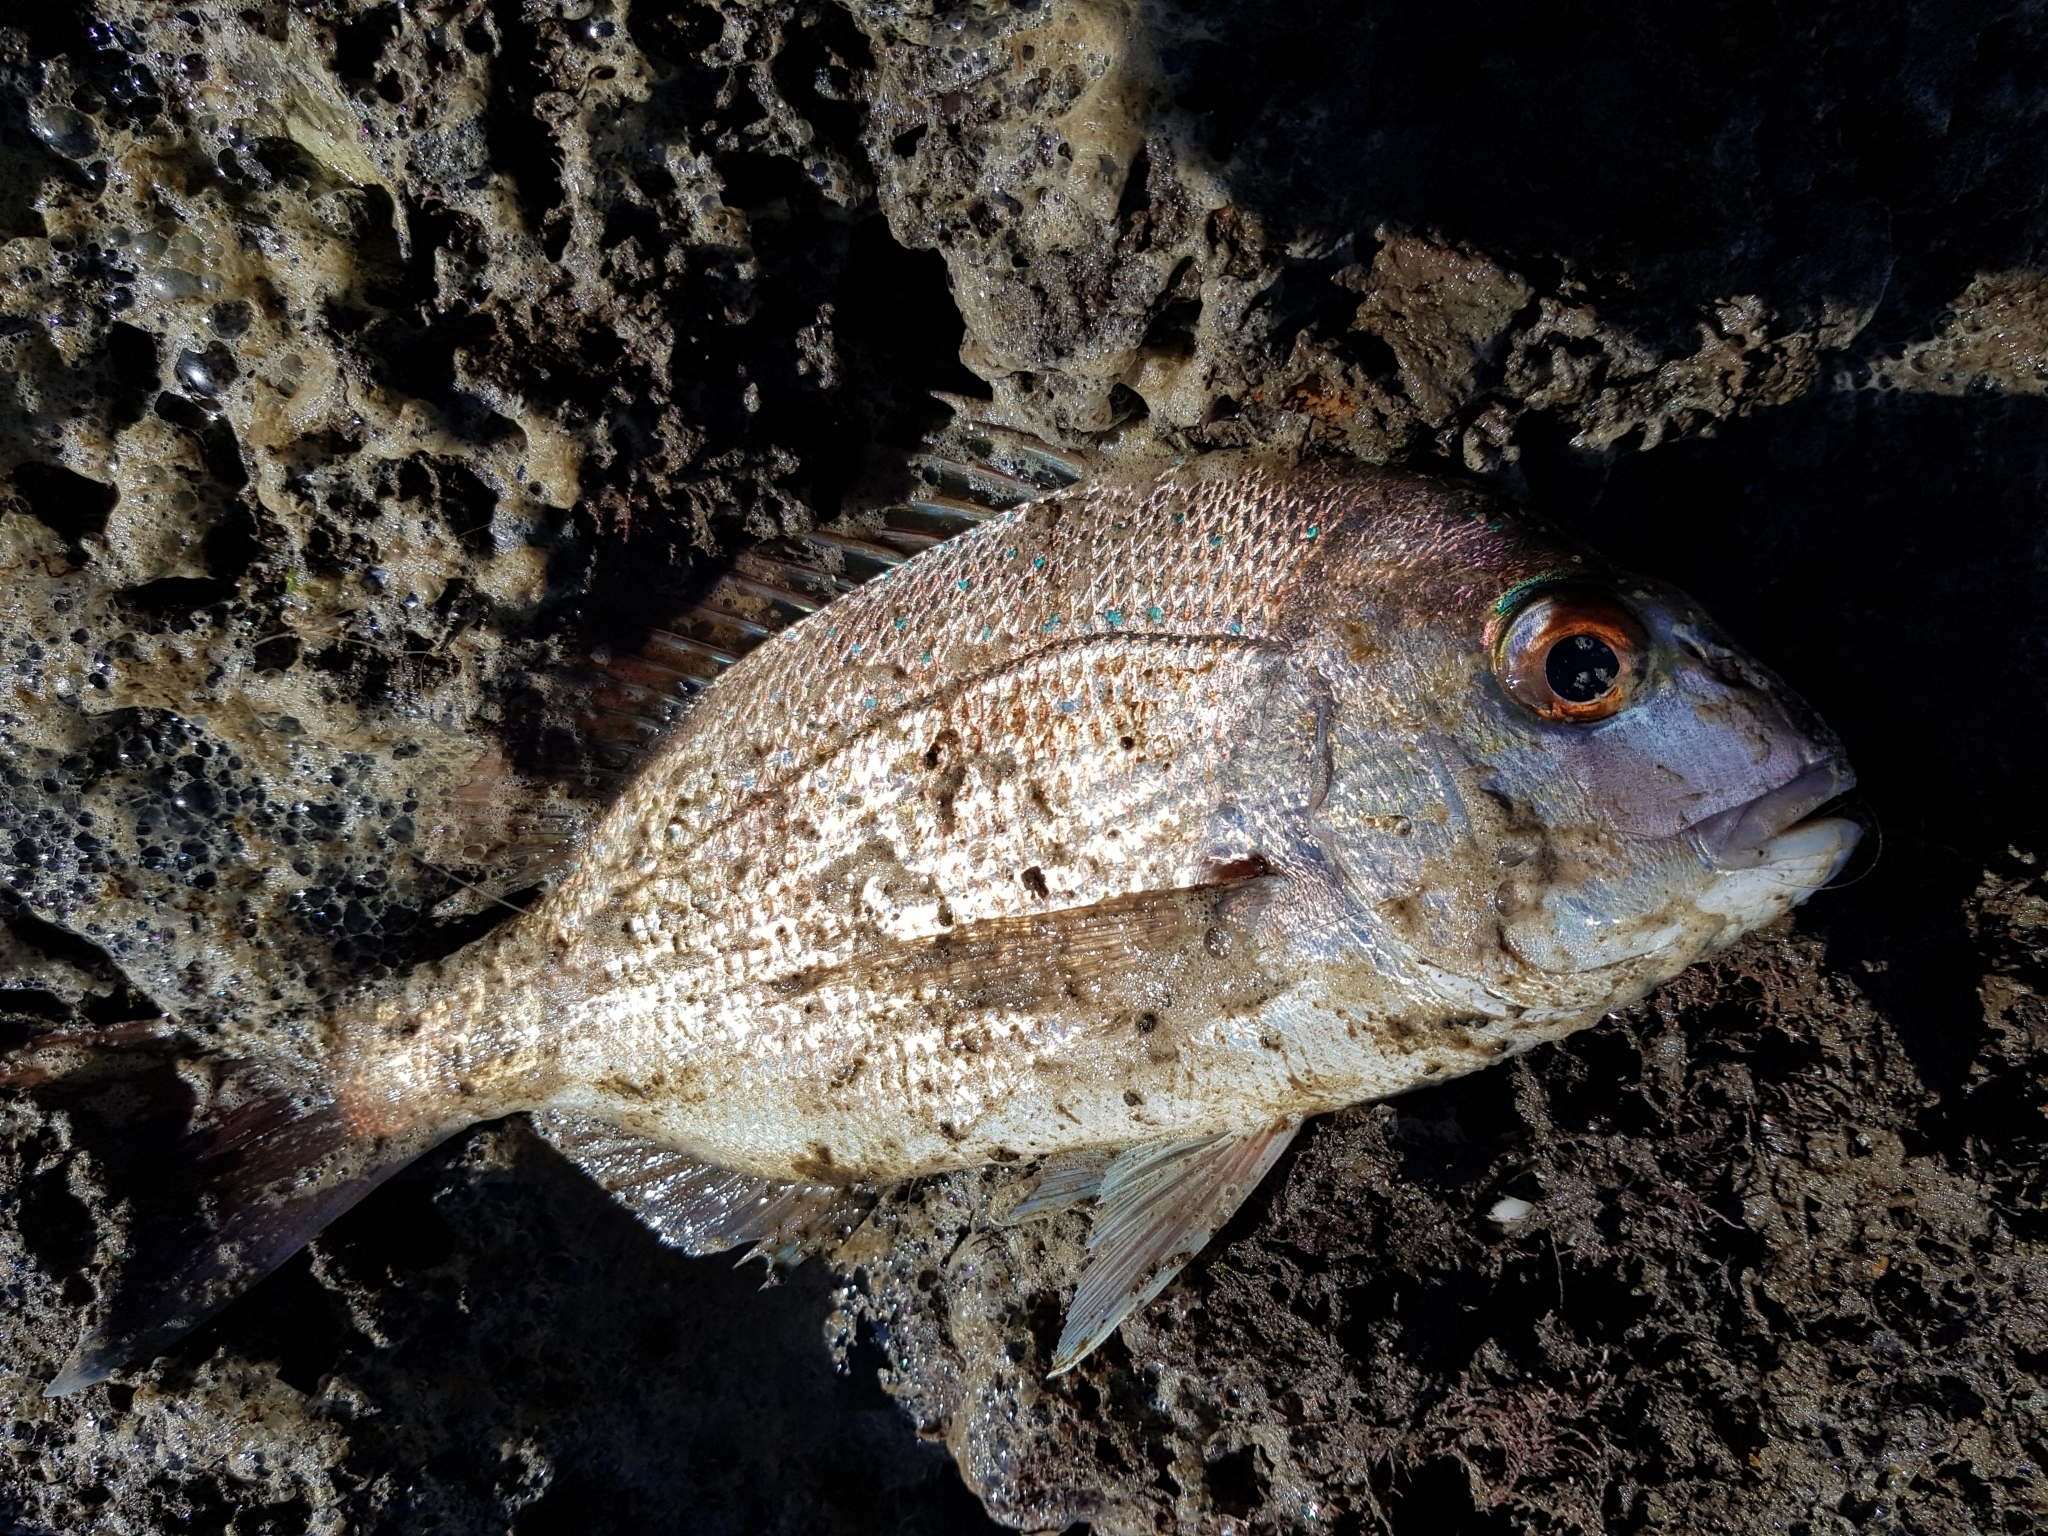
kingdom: Animalia
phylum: Chordata
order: Perciformes
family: Sparidae
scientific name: Sparidae
